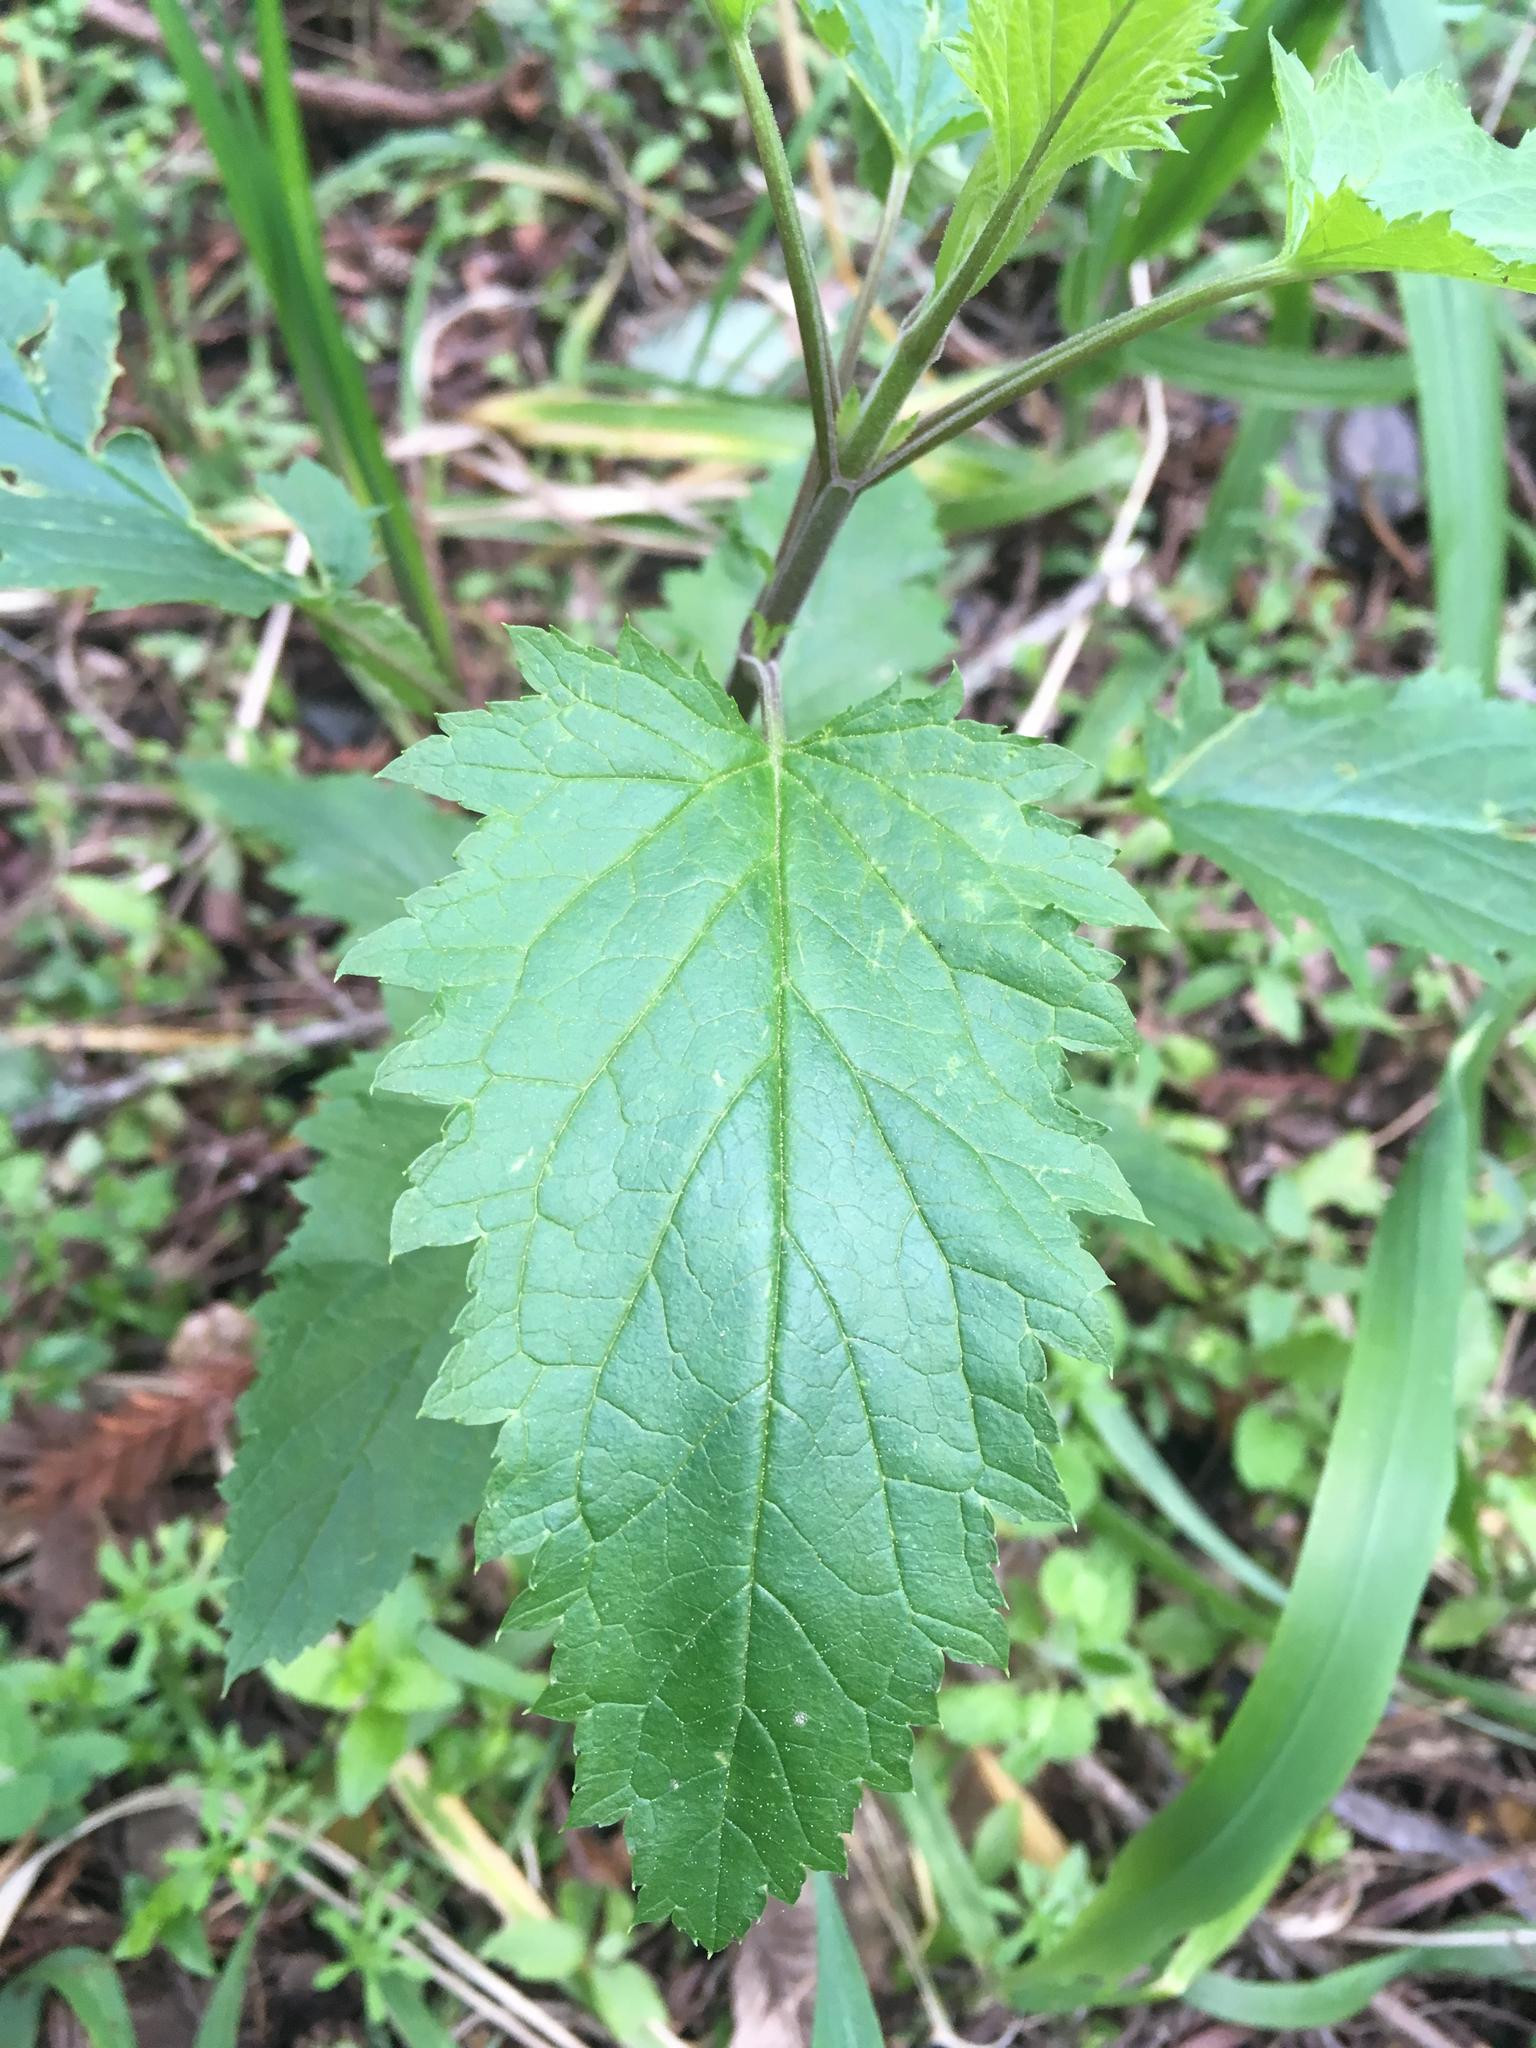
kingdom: Plantae
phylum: Tracheophyta
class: Magnoliopsida
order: Lamiales
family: Scrophulariaceae
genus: Scrophularia
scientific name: Scrophularia californica
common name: California figwort
